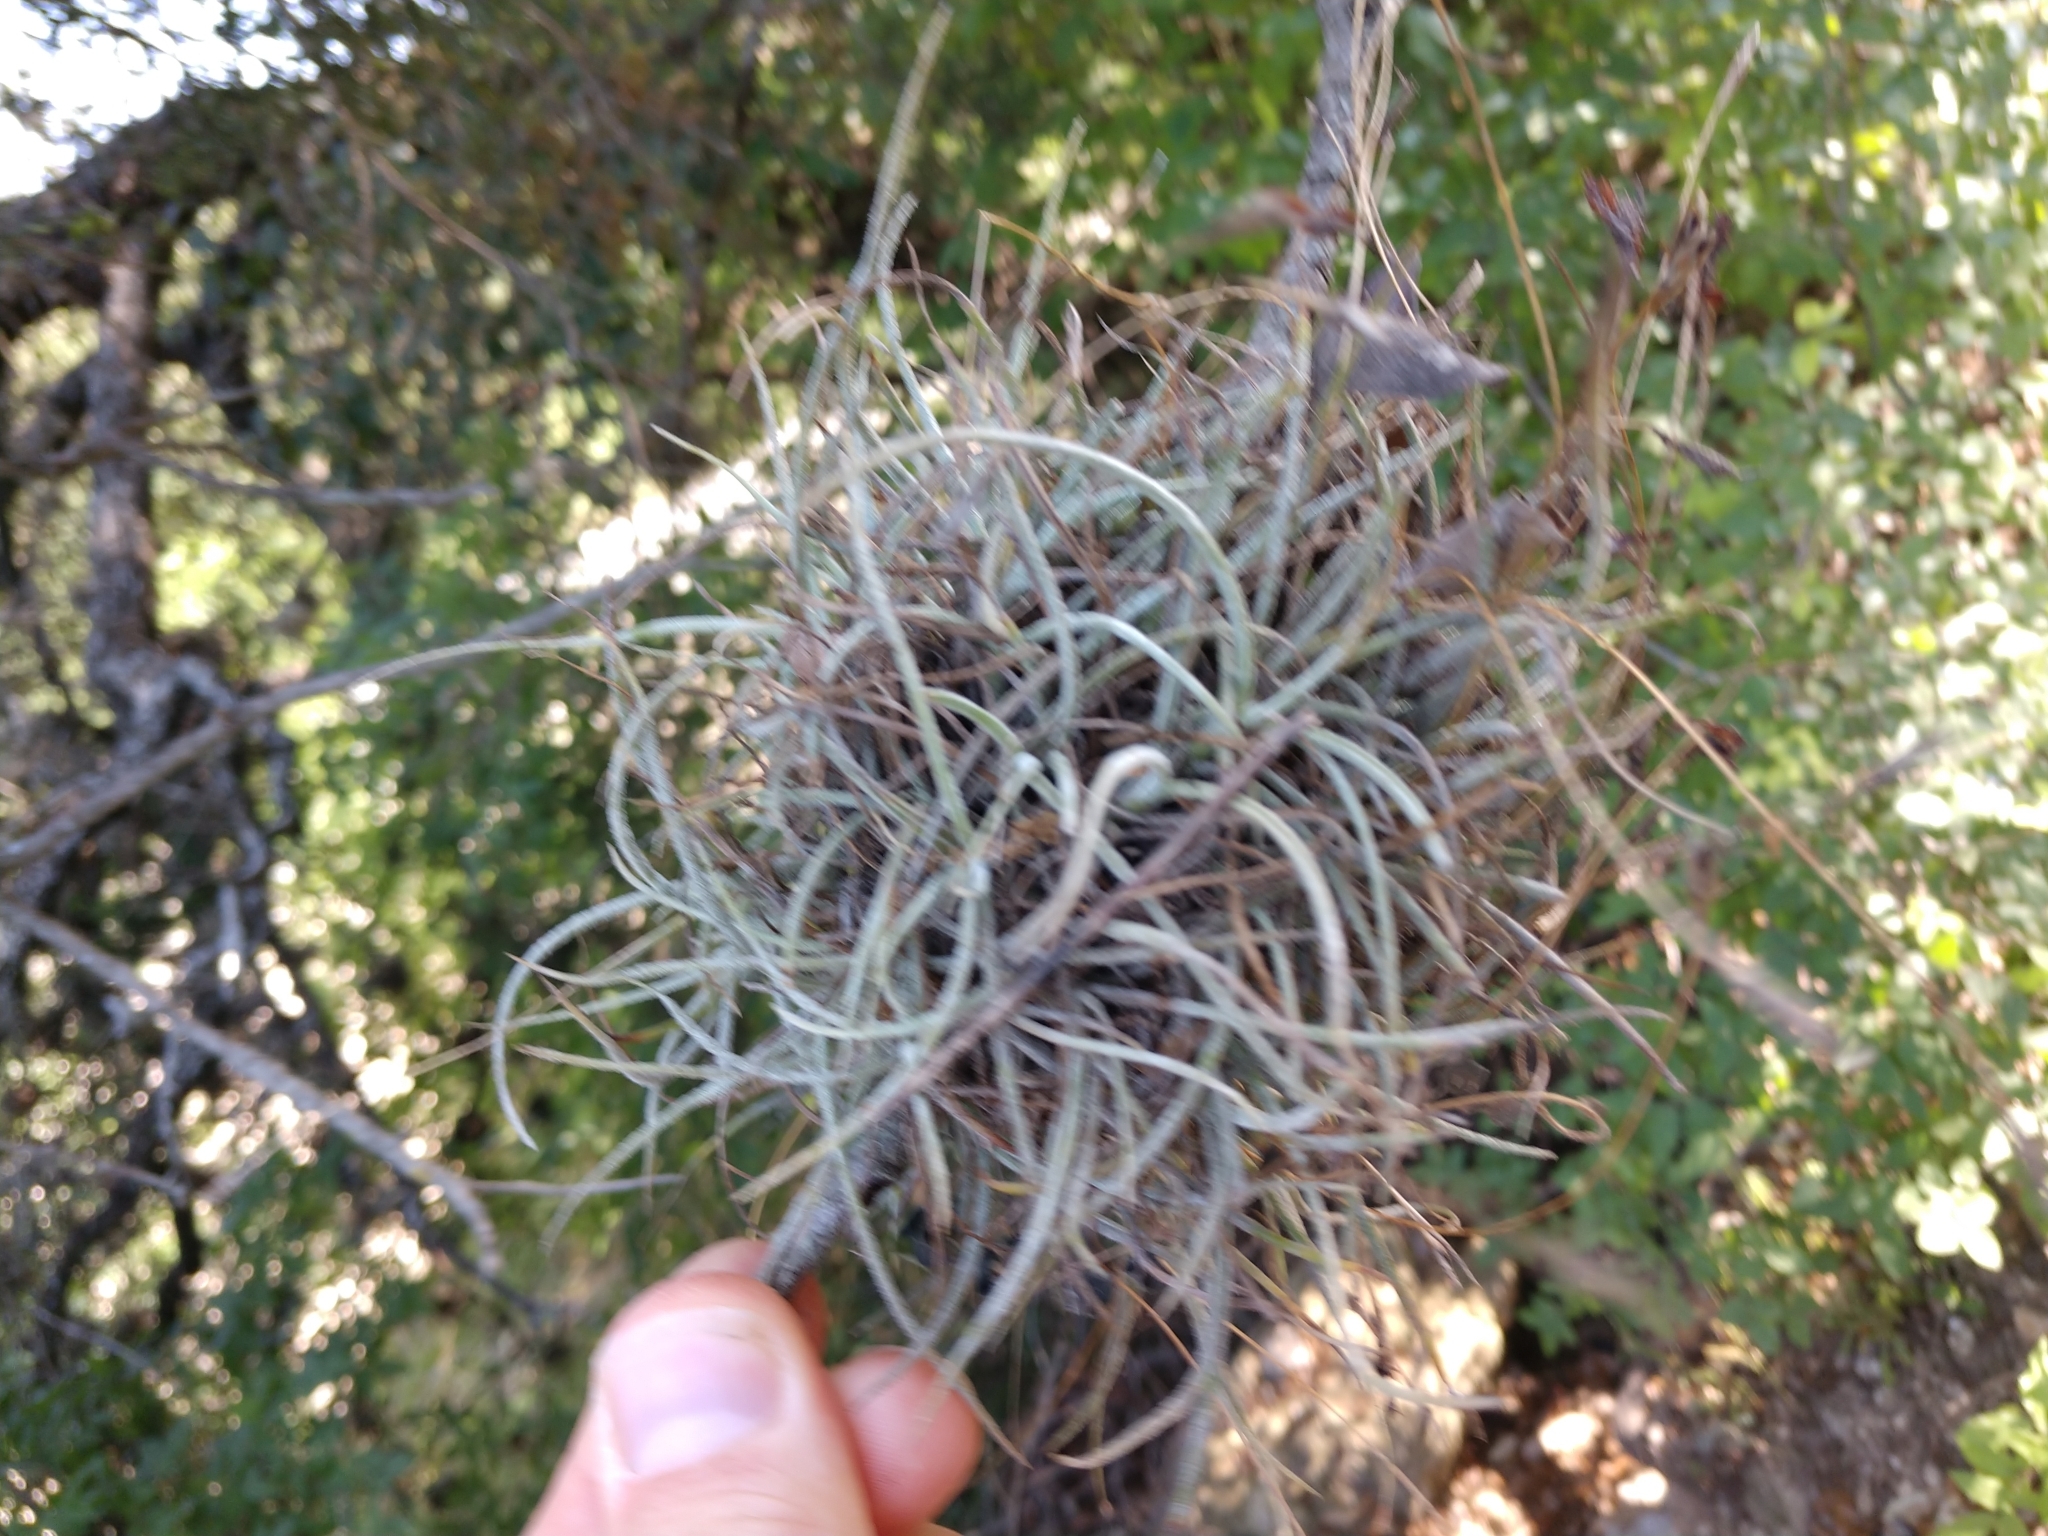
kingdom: Plantae
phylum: Tracheophyta
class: Liliopsida
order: Poales
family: Bromeliaceae
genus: Tillandsia
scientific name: Tillandsia recurvata
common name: Small ballmoss
